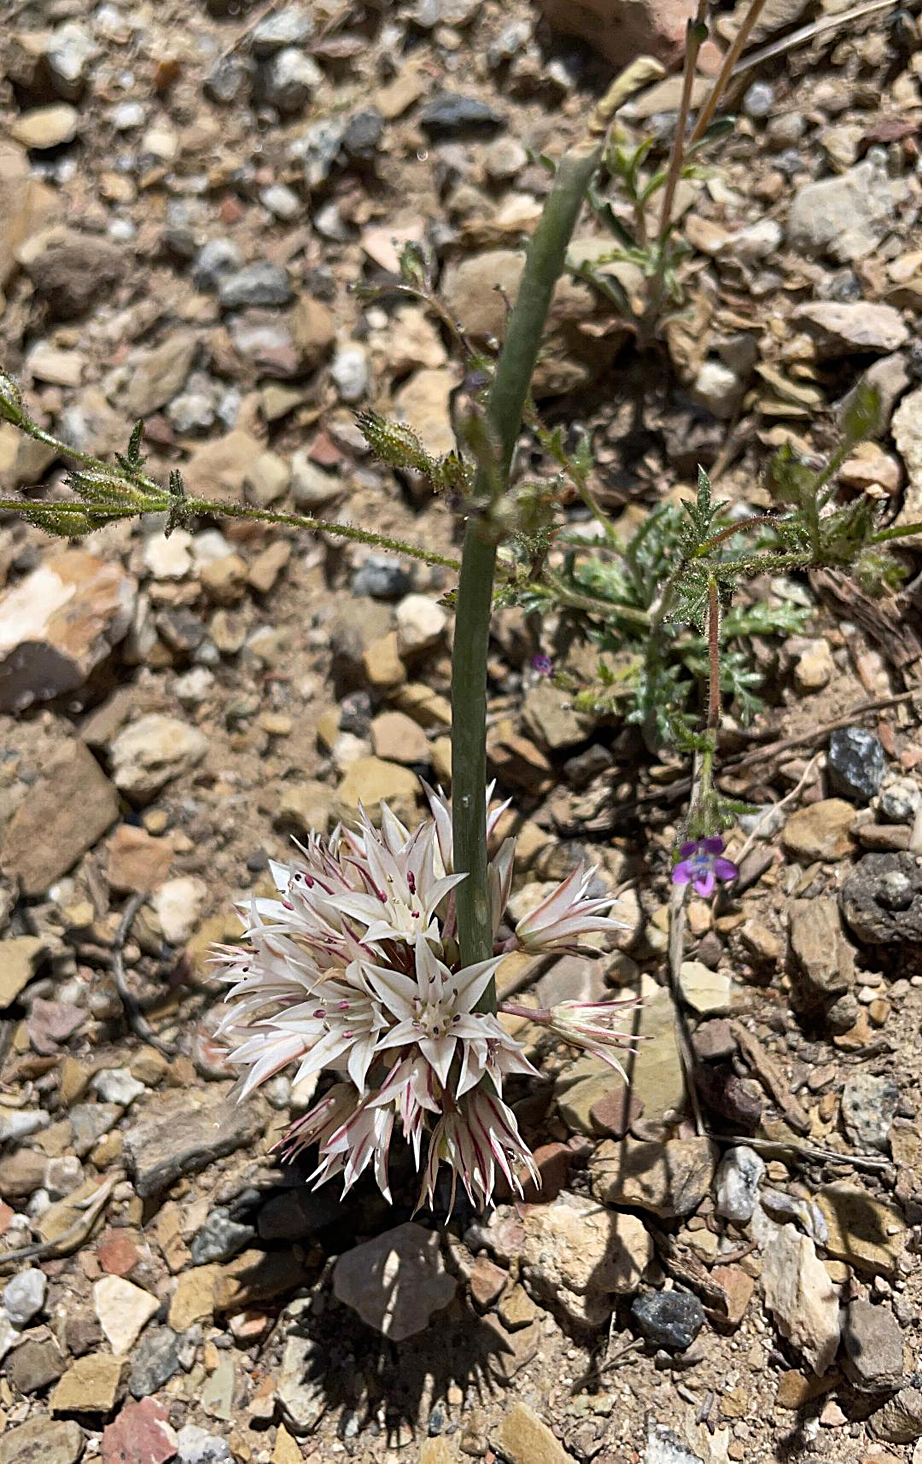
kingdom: Plantae
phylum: Tracheophyta
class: Liliopsida
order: Asparagales
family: Amaryllidaceae
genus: Allium
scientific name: Allium atrorubens
